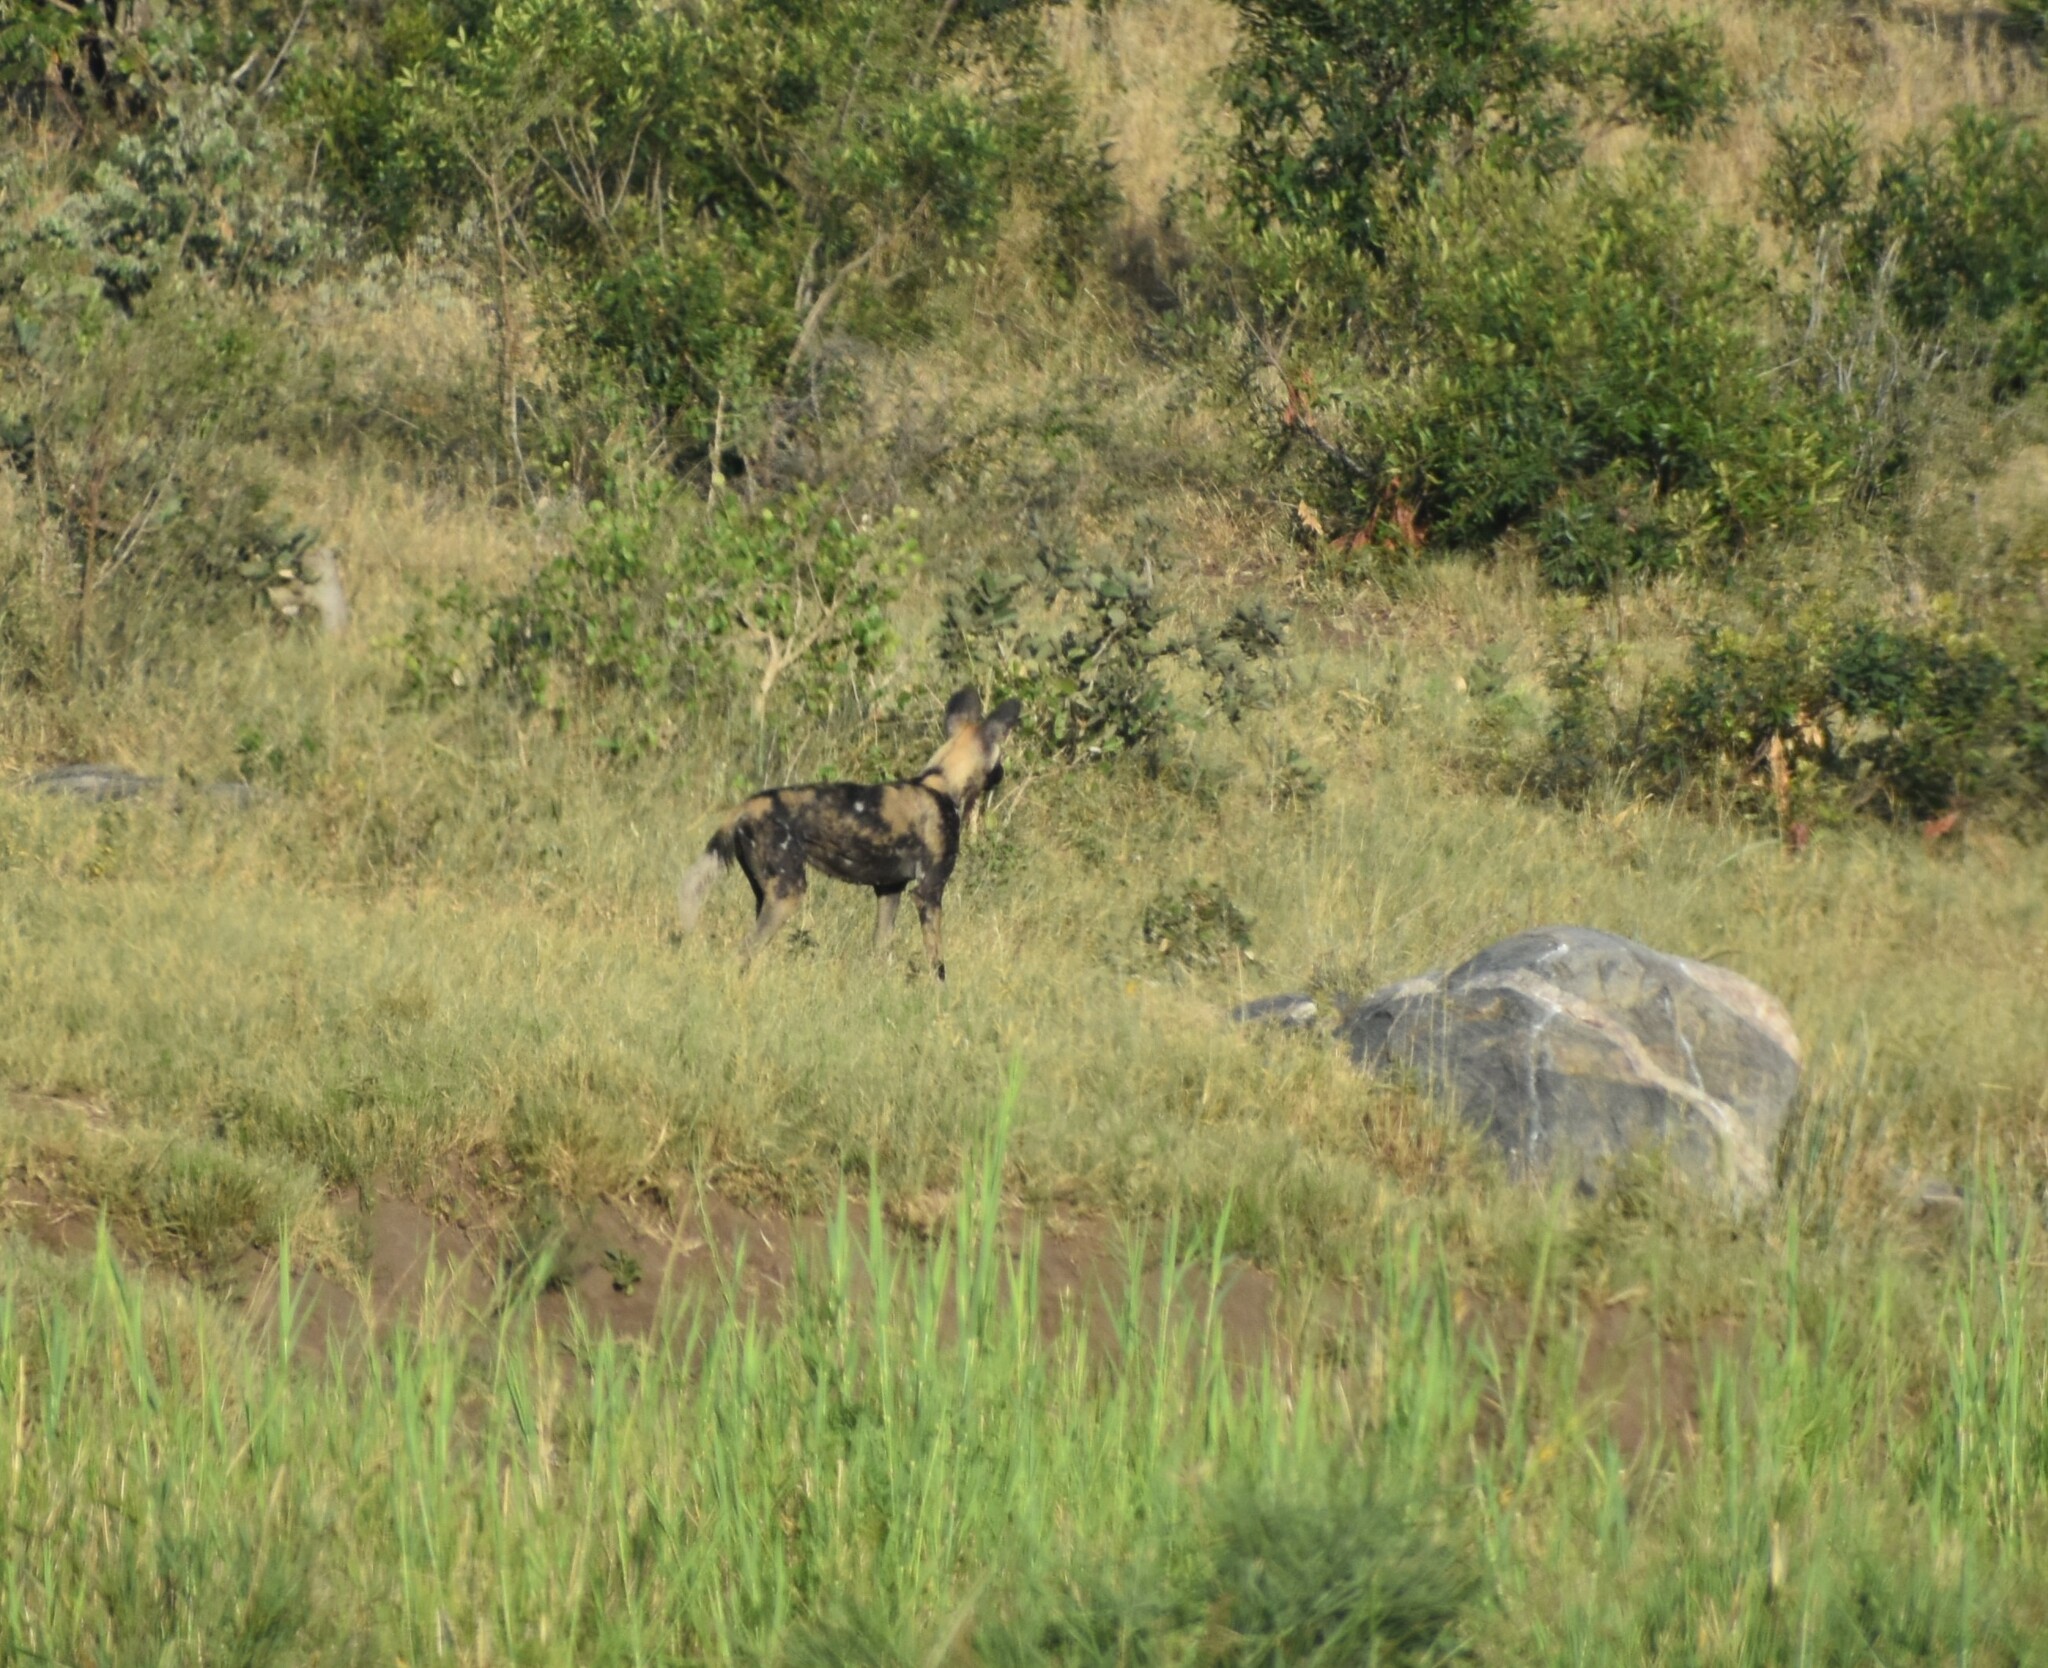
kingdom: Animalia
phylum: Chordata
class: Mammalia
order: Carnivora
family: Canidae
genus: Lycaon
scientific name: Lycaon pictus
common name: African wild dog
